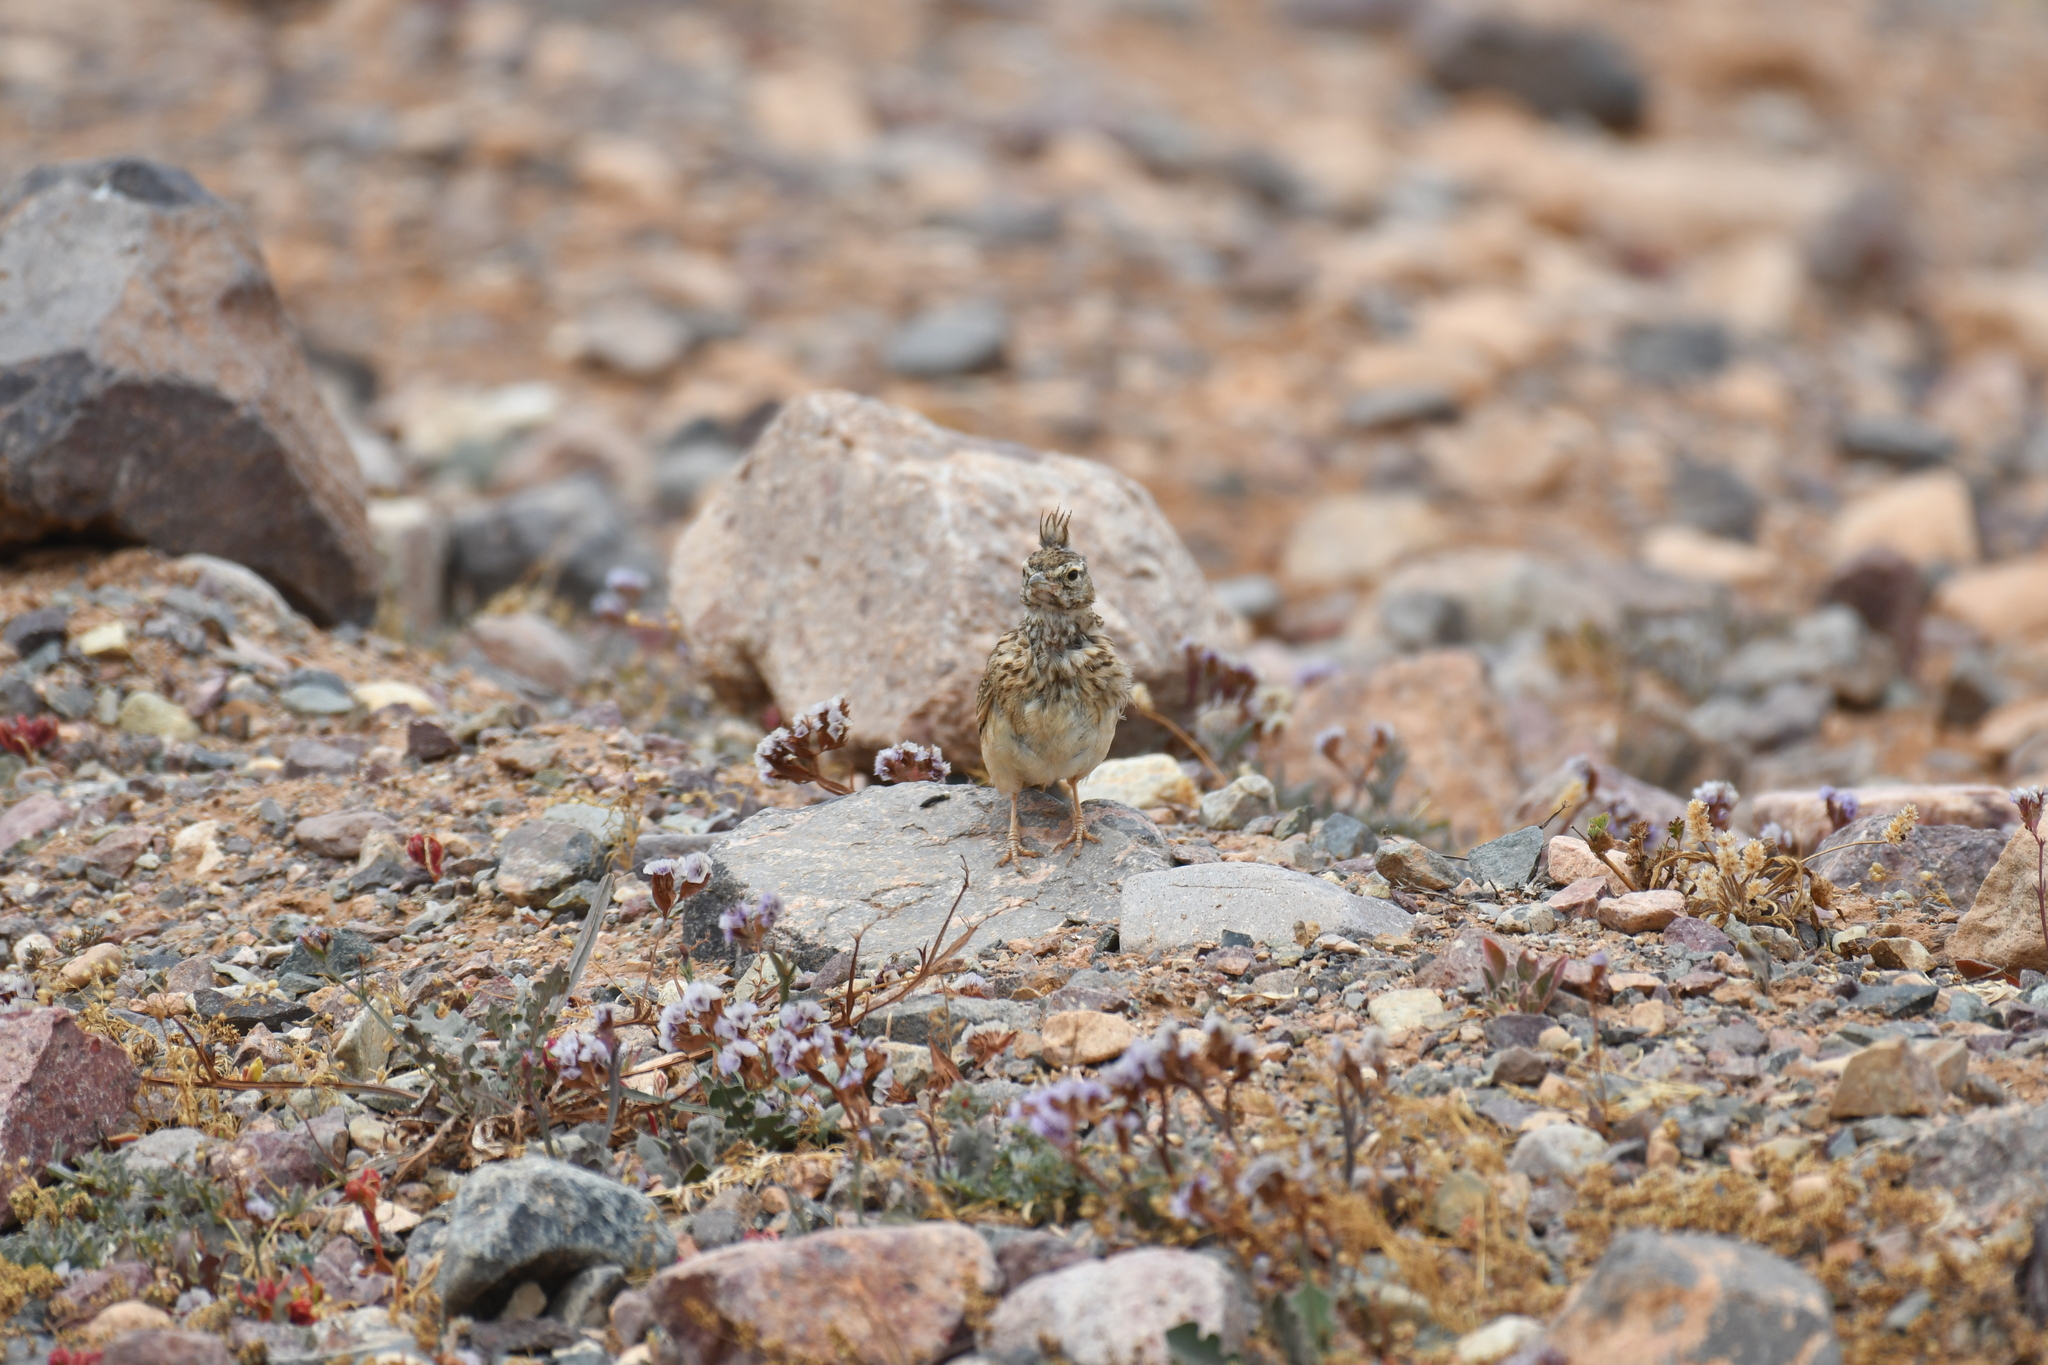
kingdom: Animalia
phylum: Chordata
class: Aves
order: Passeriformes
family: Alaudidae
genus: Galerida
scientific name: Galerida theklae
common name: Thekla lark
